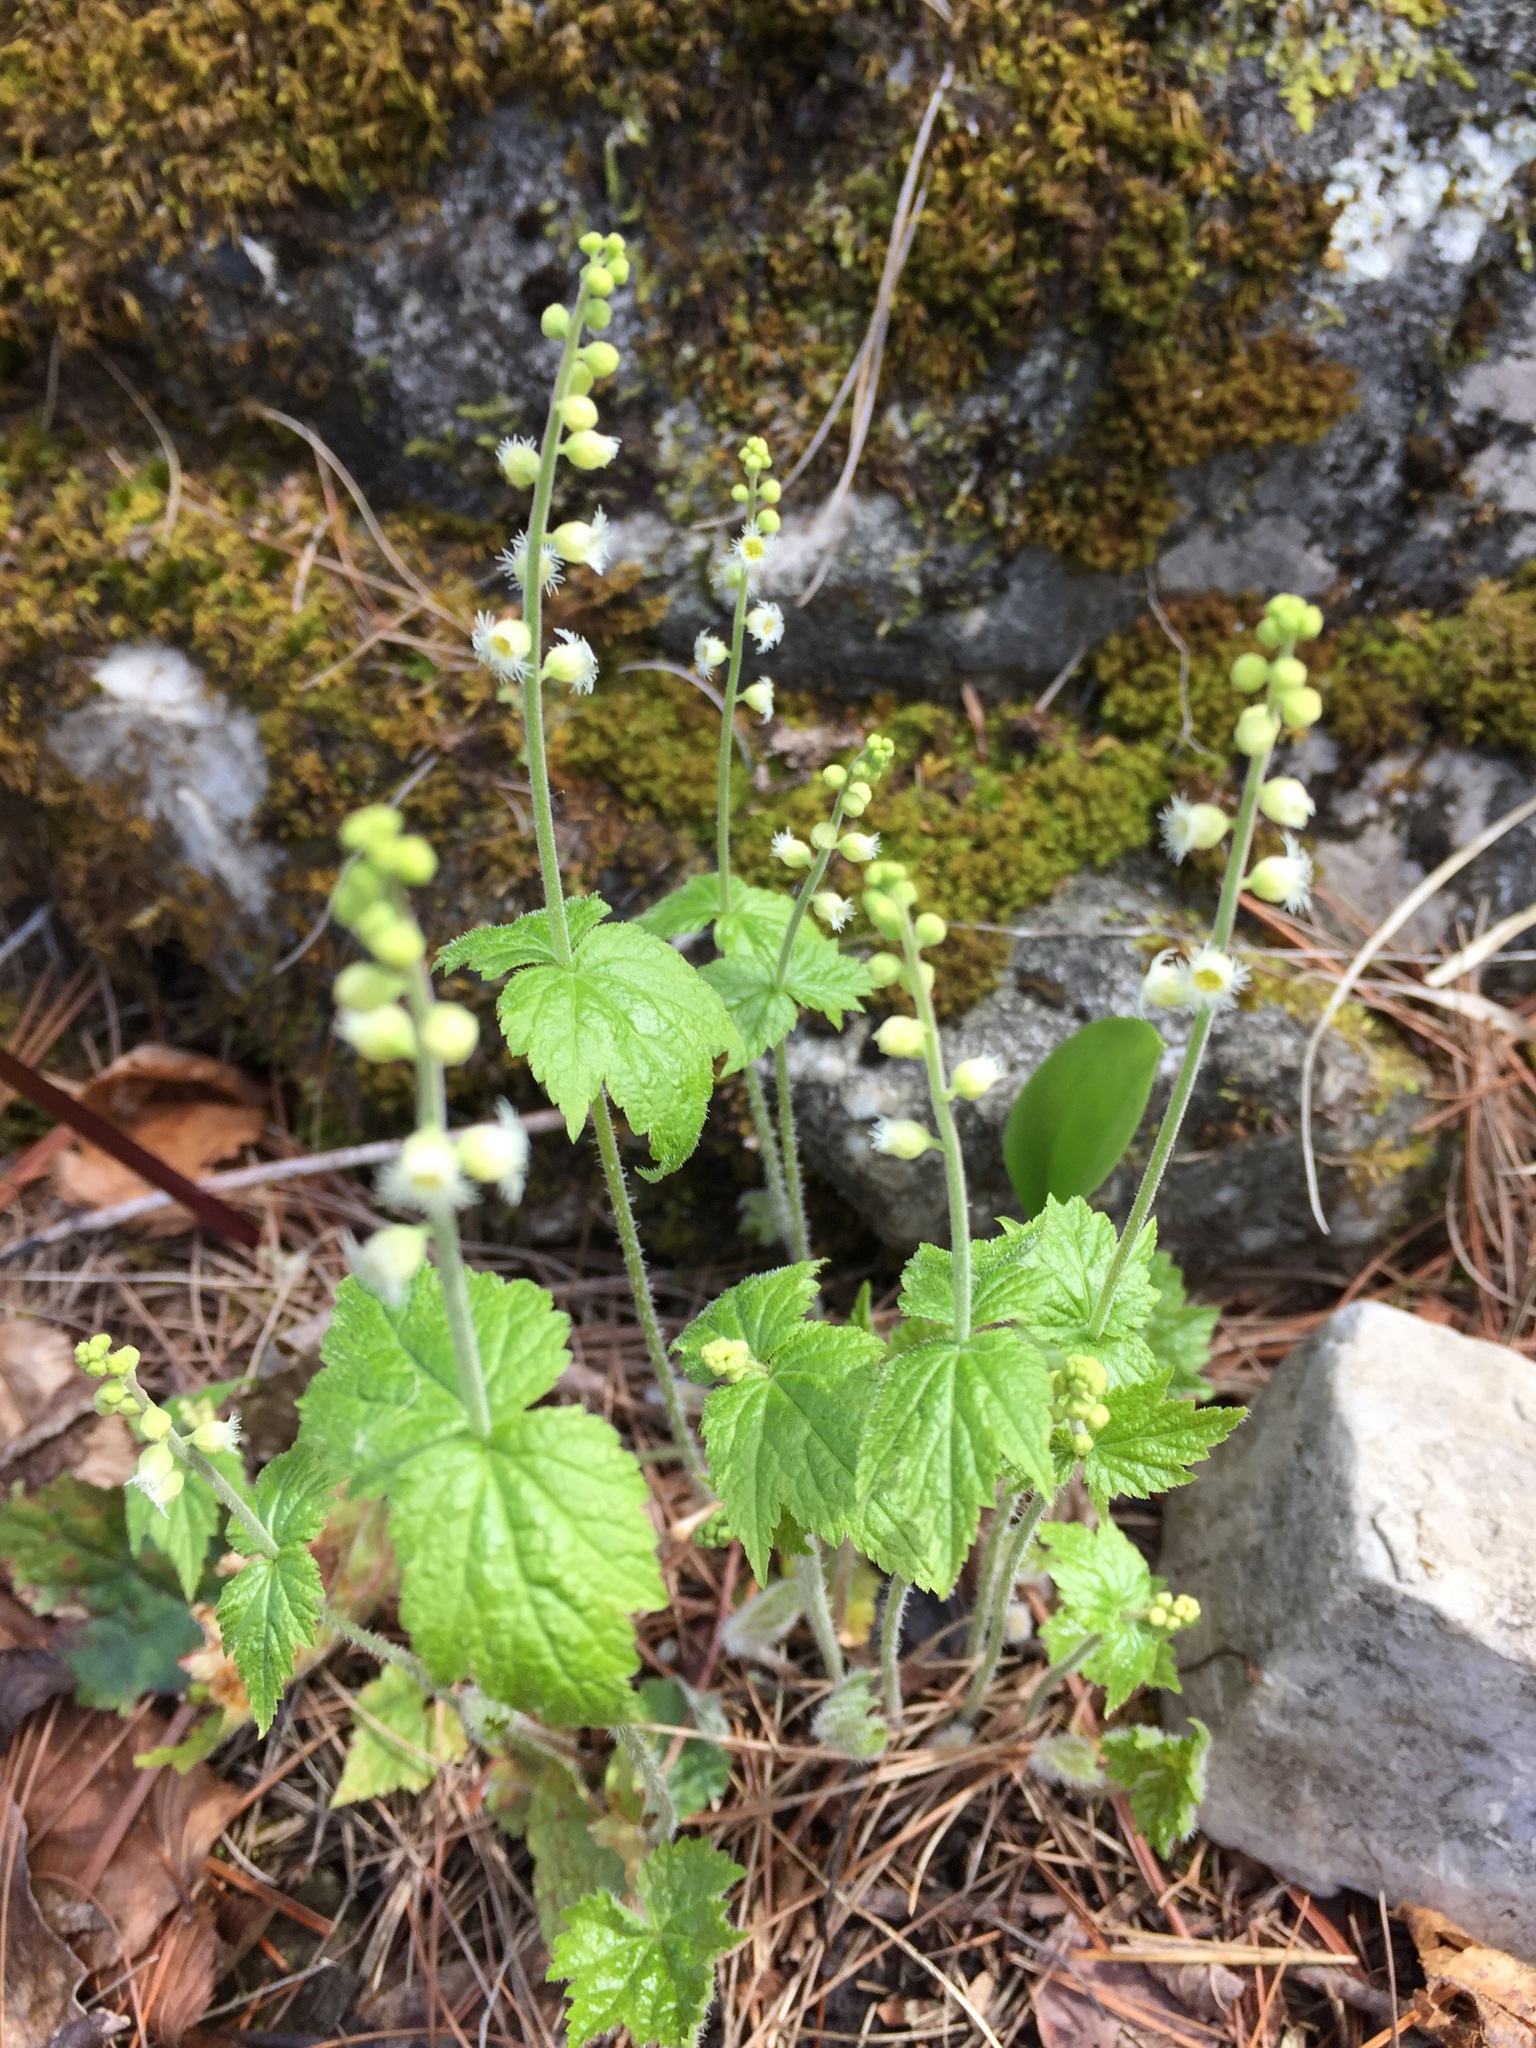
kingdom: Plantae
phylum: Tracheophyta
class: Magnoliopsida
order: Saxifragales
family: Saxifragaceae
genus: Mitella
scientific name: Mitella diphylla
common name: Coolwort
